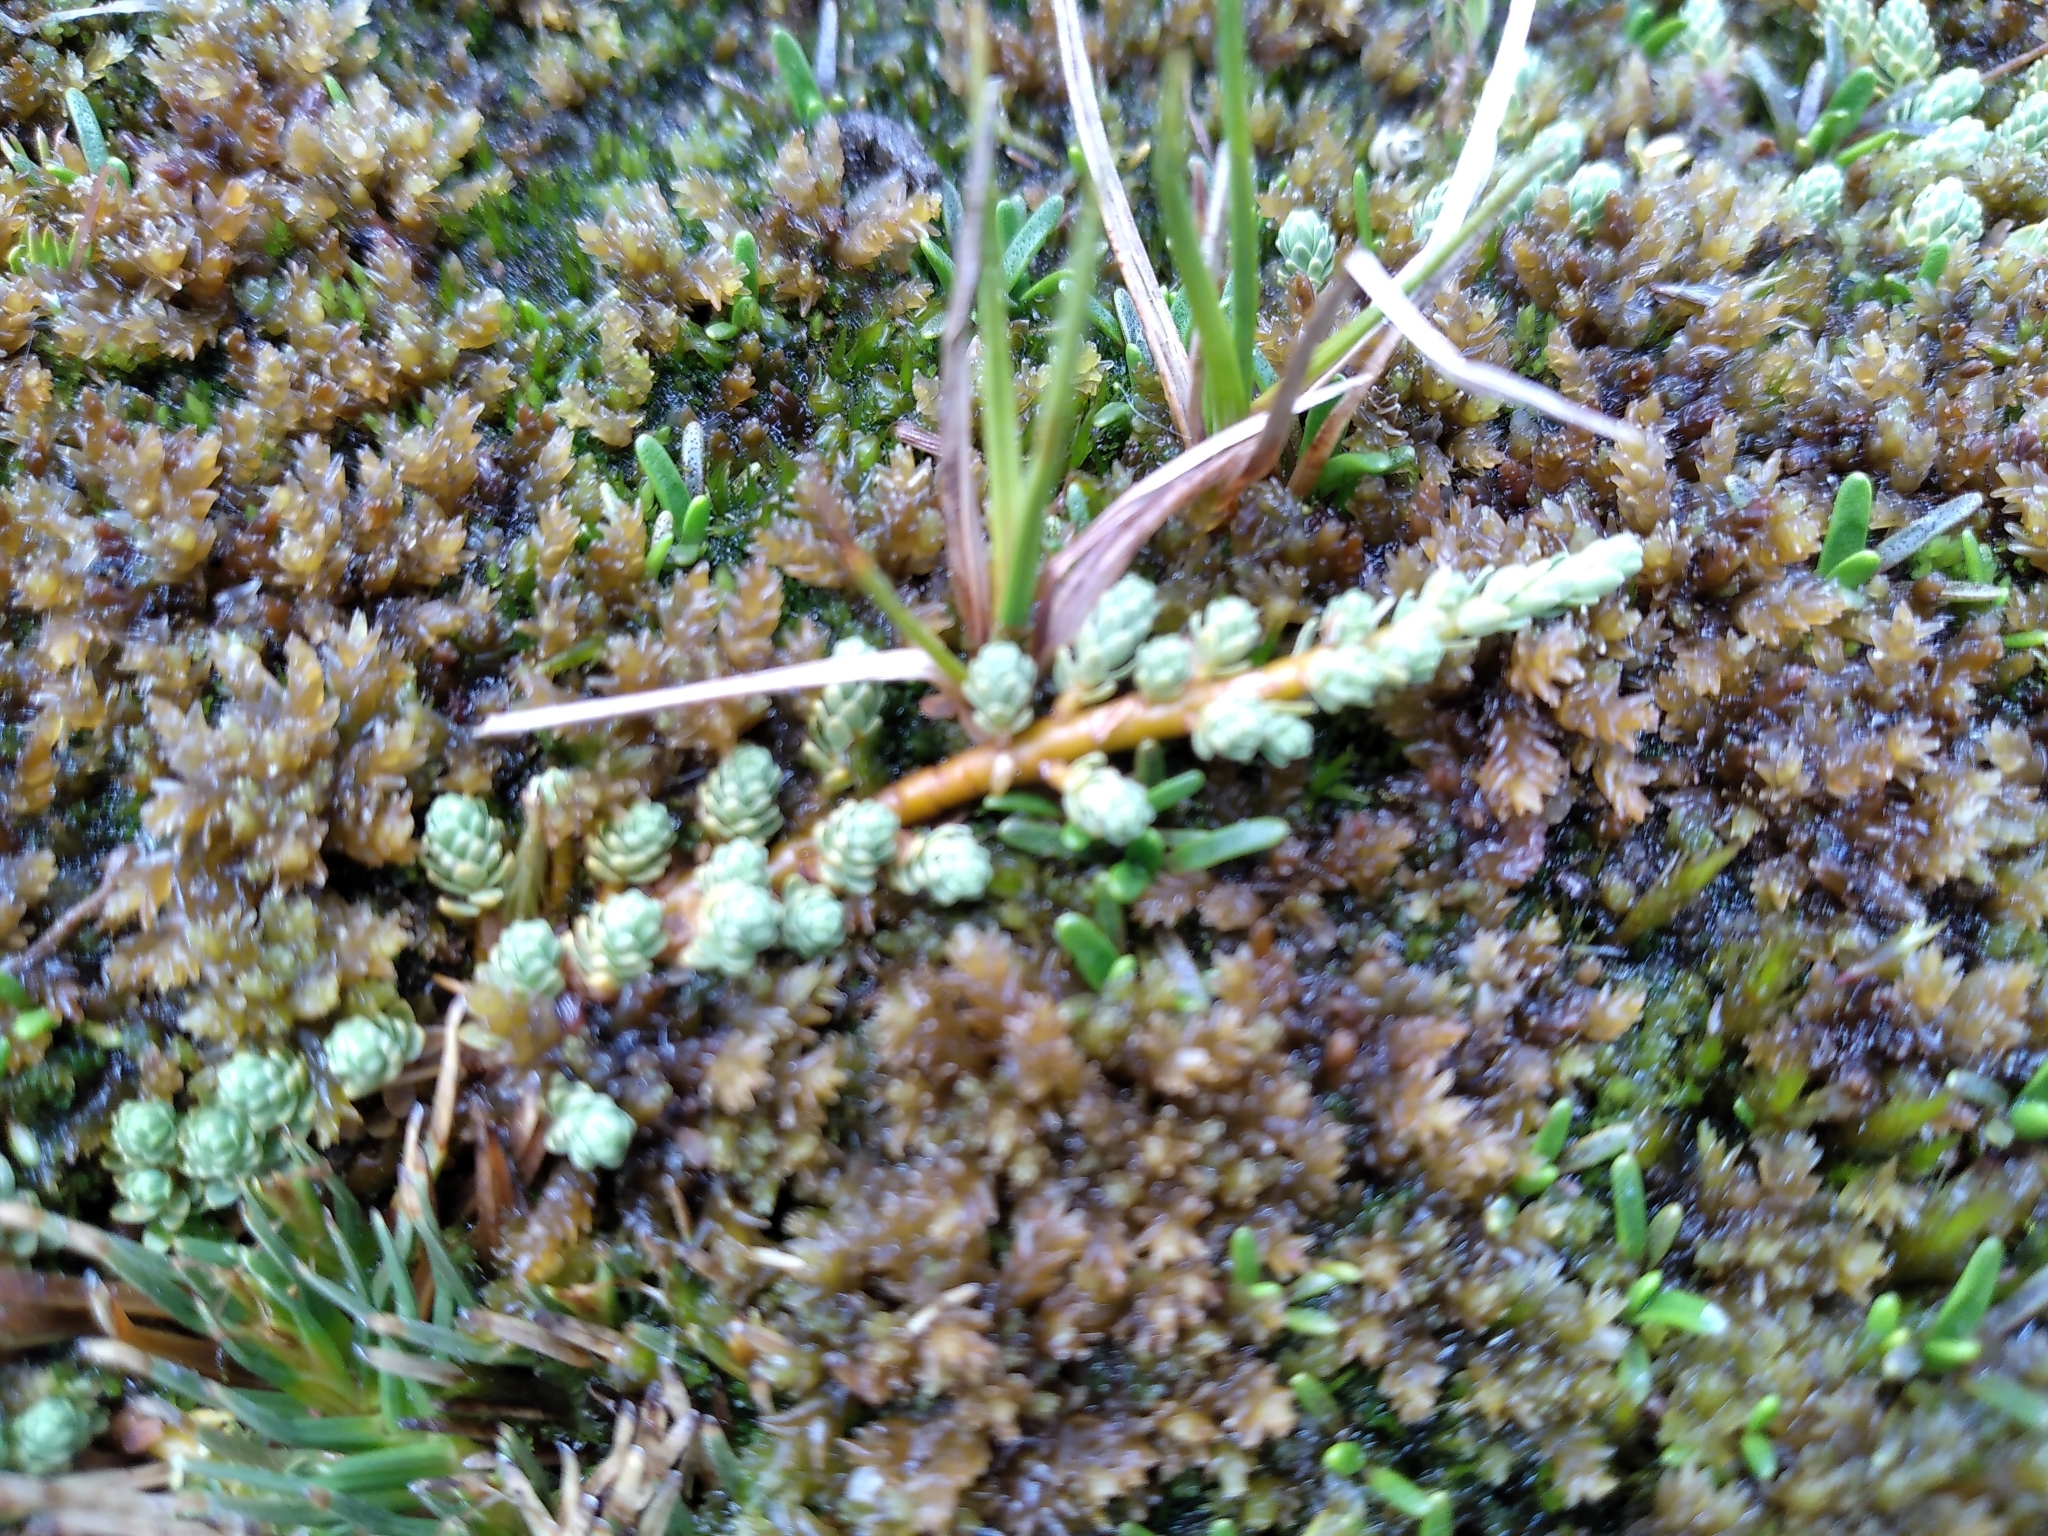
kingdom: Plantae
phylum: Tracheophyta
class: Magnoliopsida
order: Malvales
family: Thymelaeaceae
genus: Kelleria
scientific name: Kelleria paludosa
